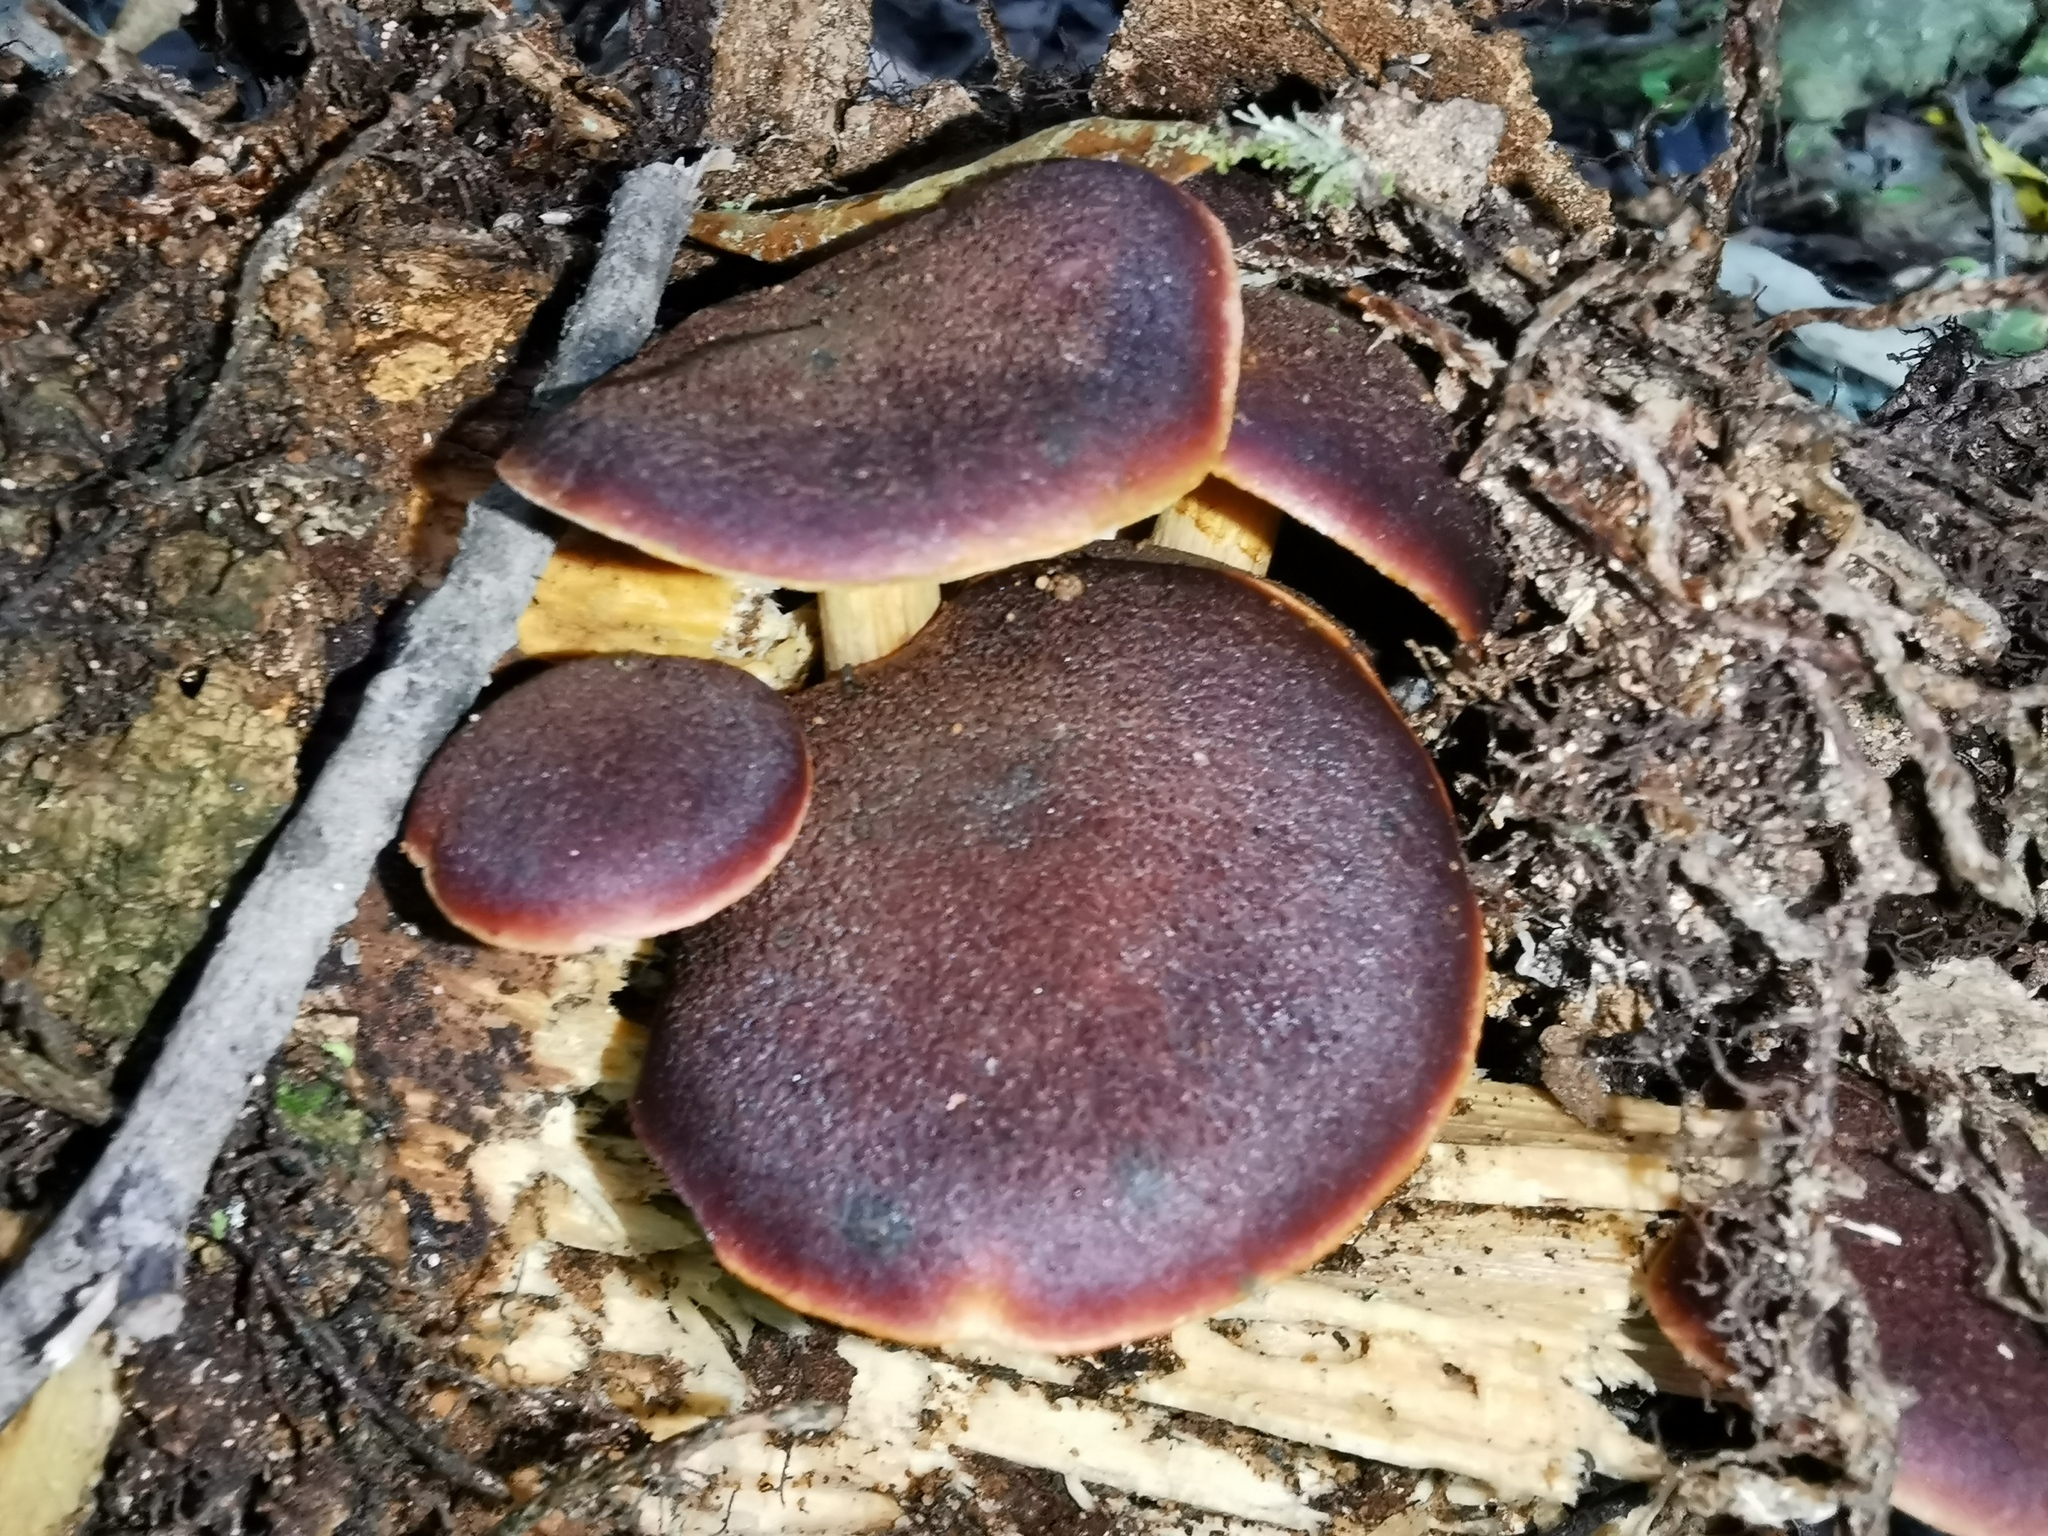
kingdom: Fungi
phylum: Basidiomycota
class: Agaricomycetes
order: Agaricales
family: Hymenogastraceae
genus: Gymnopilus
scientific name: Gymnopilus purpuratus
